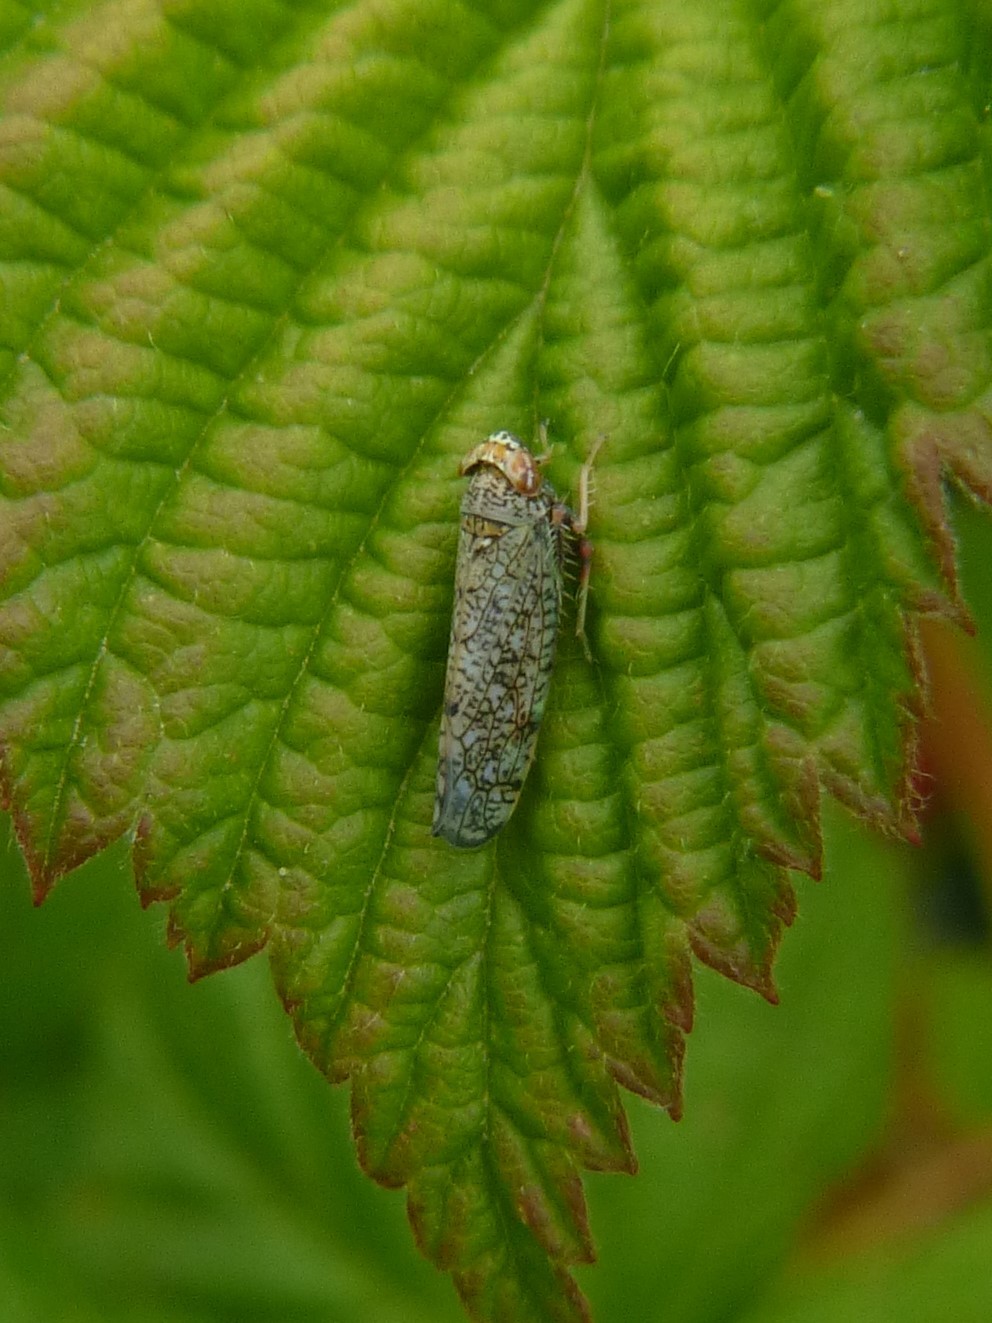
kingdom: Animalia
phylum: Arthropoda
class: Insecta
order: Hemiptera
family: Cicadellidae
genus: Orientus
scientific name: Orientus ishidae
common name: Japanese leafhopper
